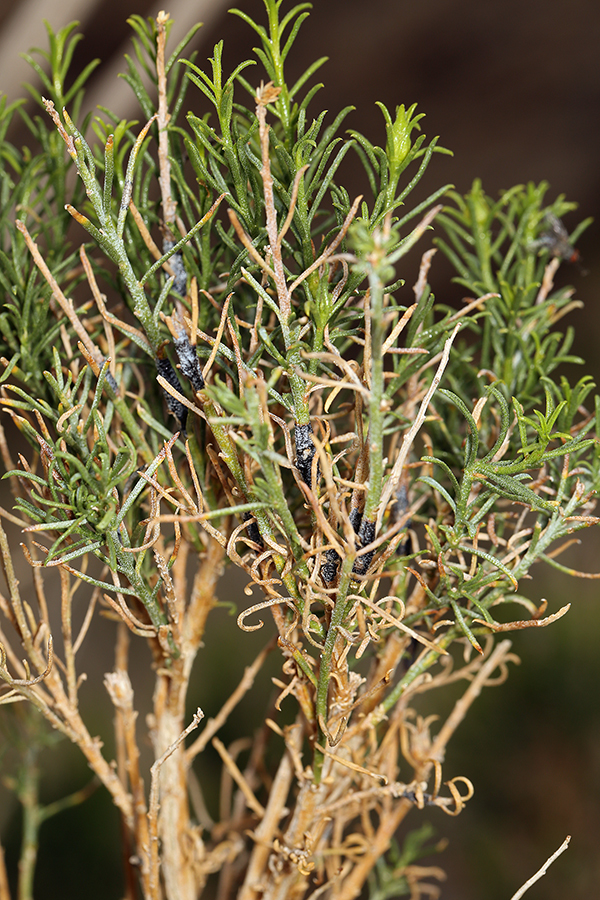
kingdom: Plantae
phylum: Tracheophyta
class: Magnoliopsida
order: Asterales
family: Asteraceae
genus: Ericameria
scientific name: Ericameria paniculata
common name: Punctate rabbitbrush
